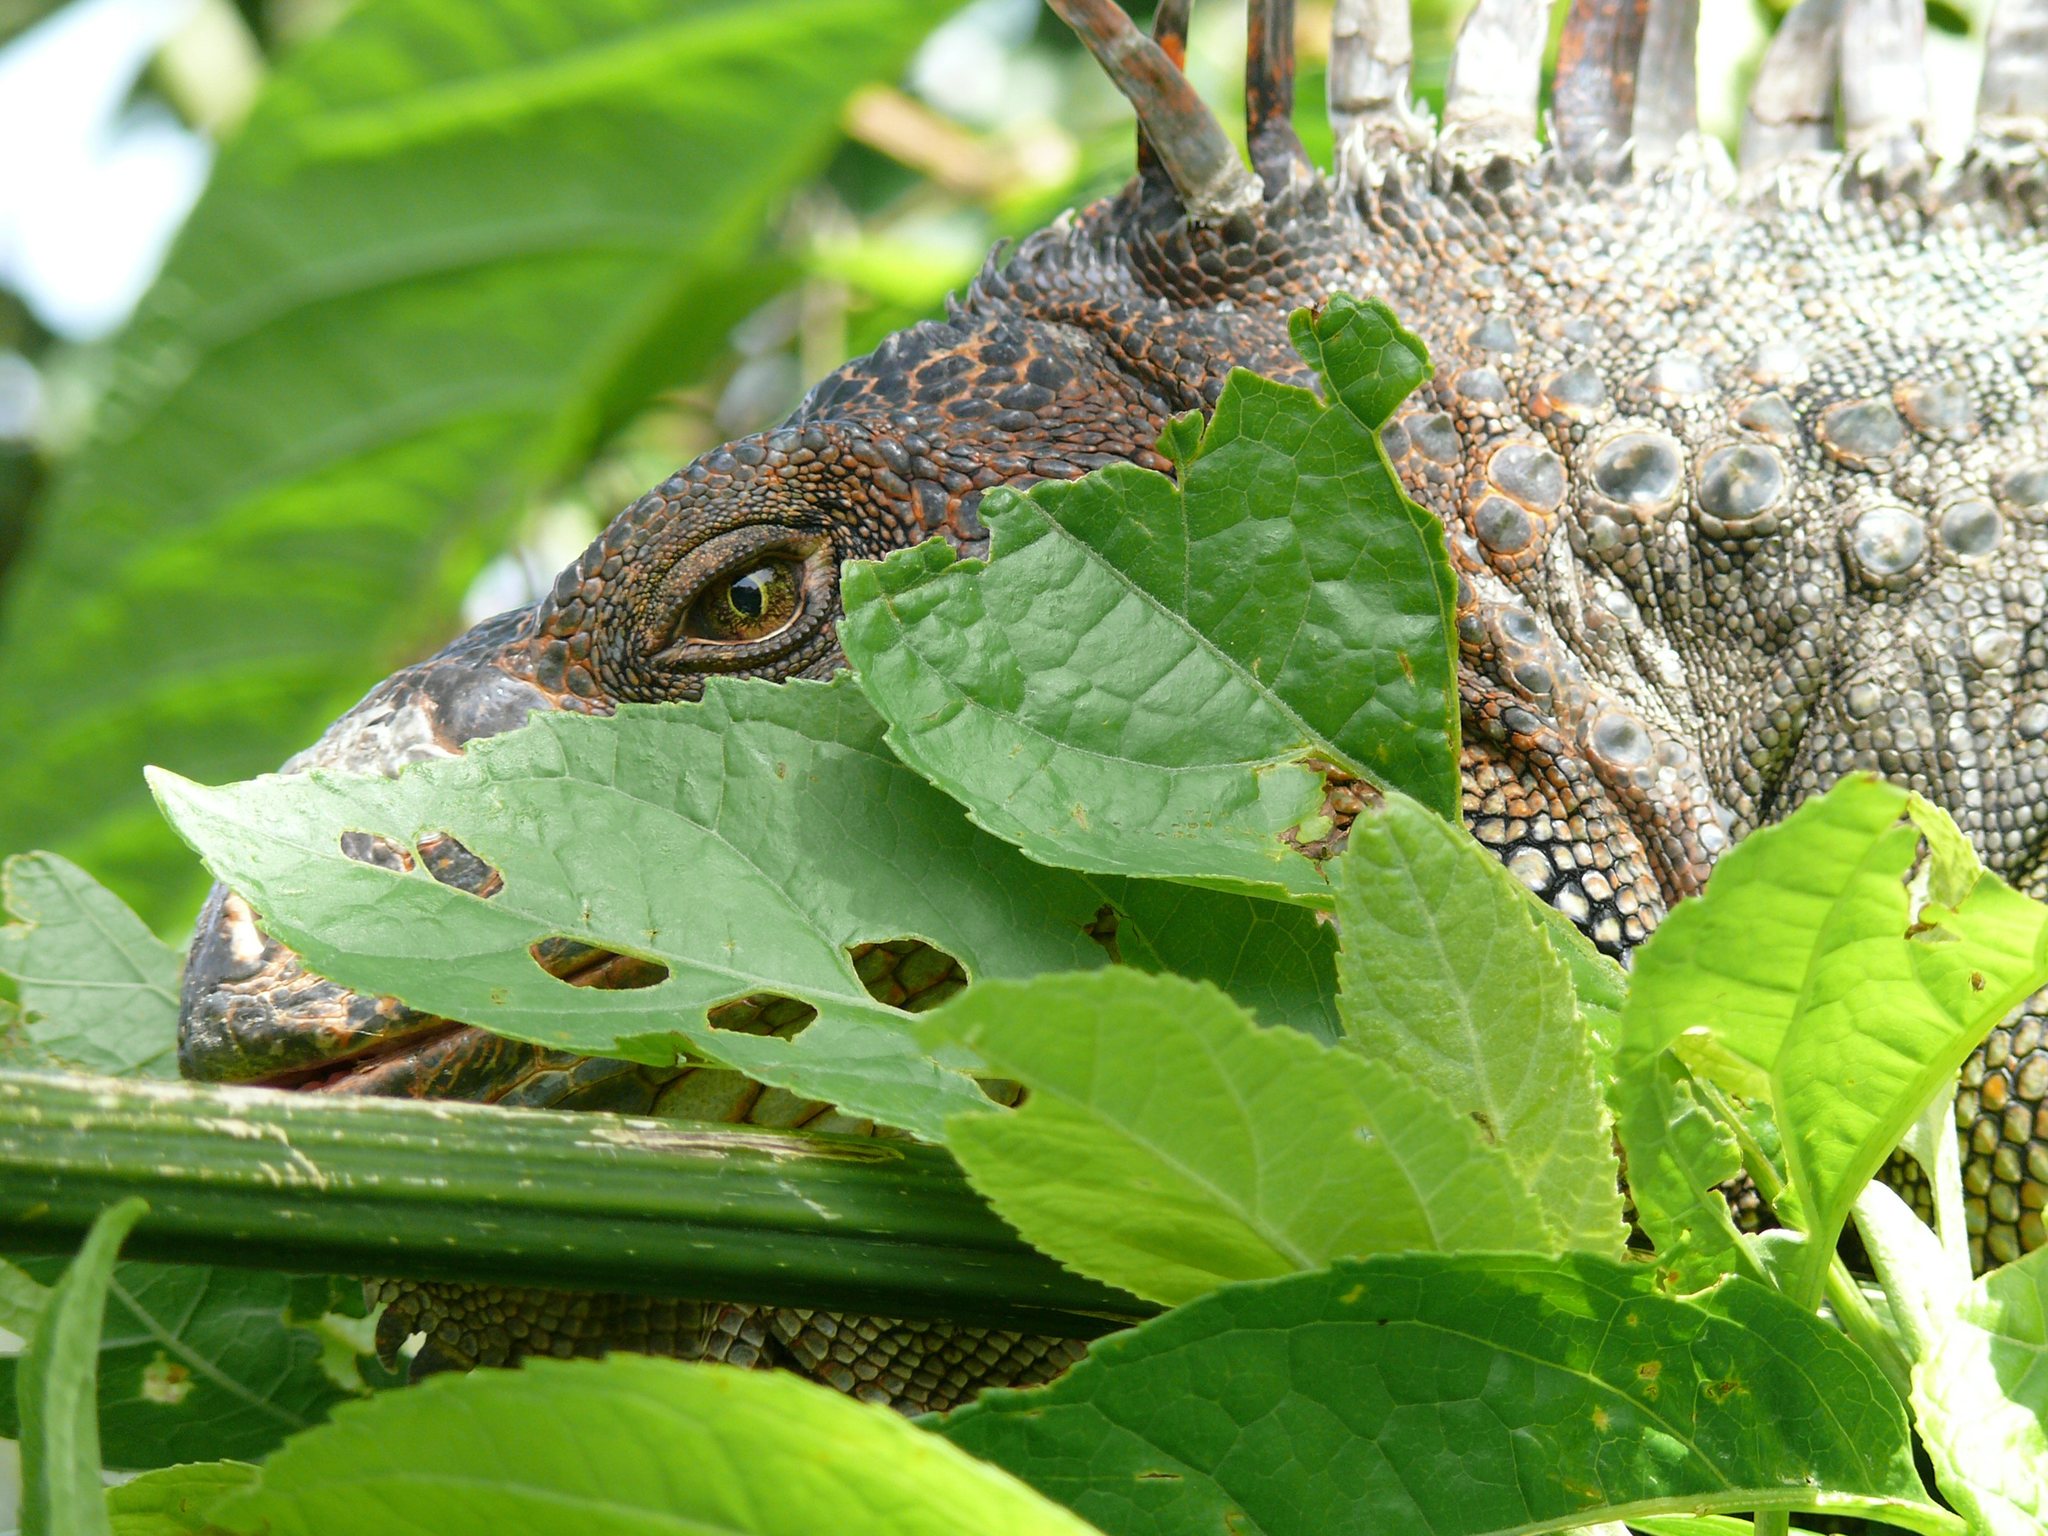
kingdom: Animalia
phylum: Chordata
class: Squamata
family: Iguanidae
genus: Iguana
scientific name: Iguana iguana
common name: Green iguana
